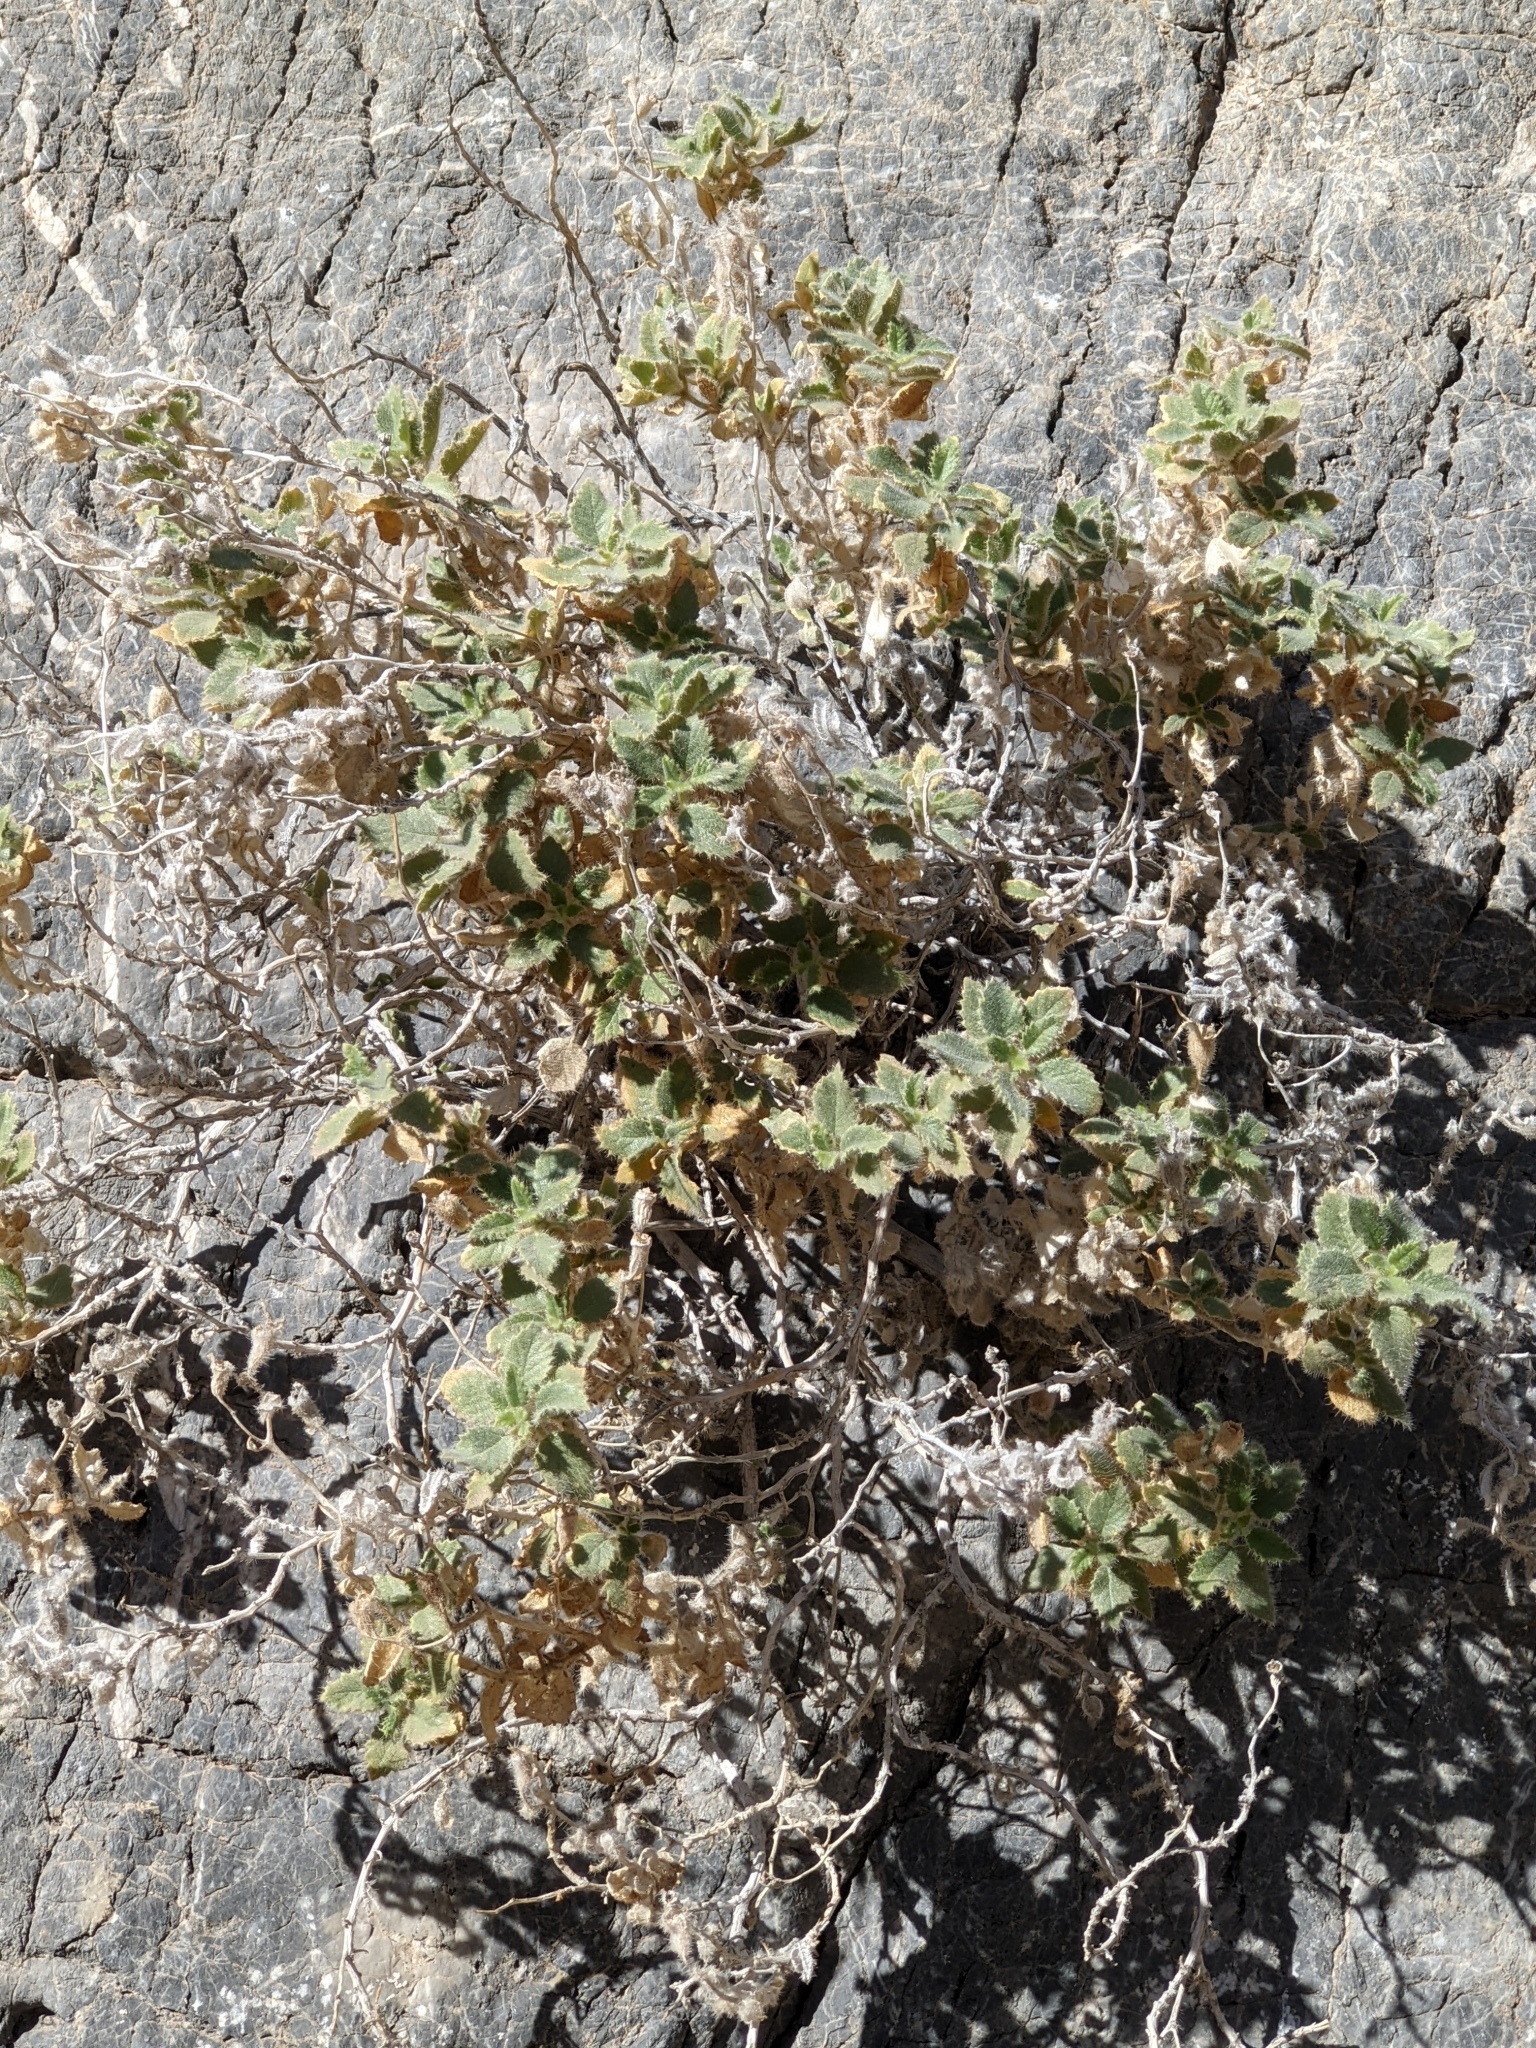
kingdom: Plantae
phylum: Tracheophyta
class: Magnoliopsida
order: Cornales
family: Loasaceae
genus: Eucnide
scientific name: Eucnide urens
